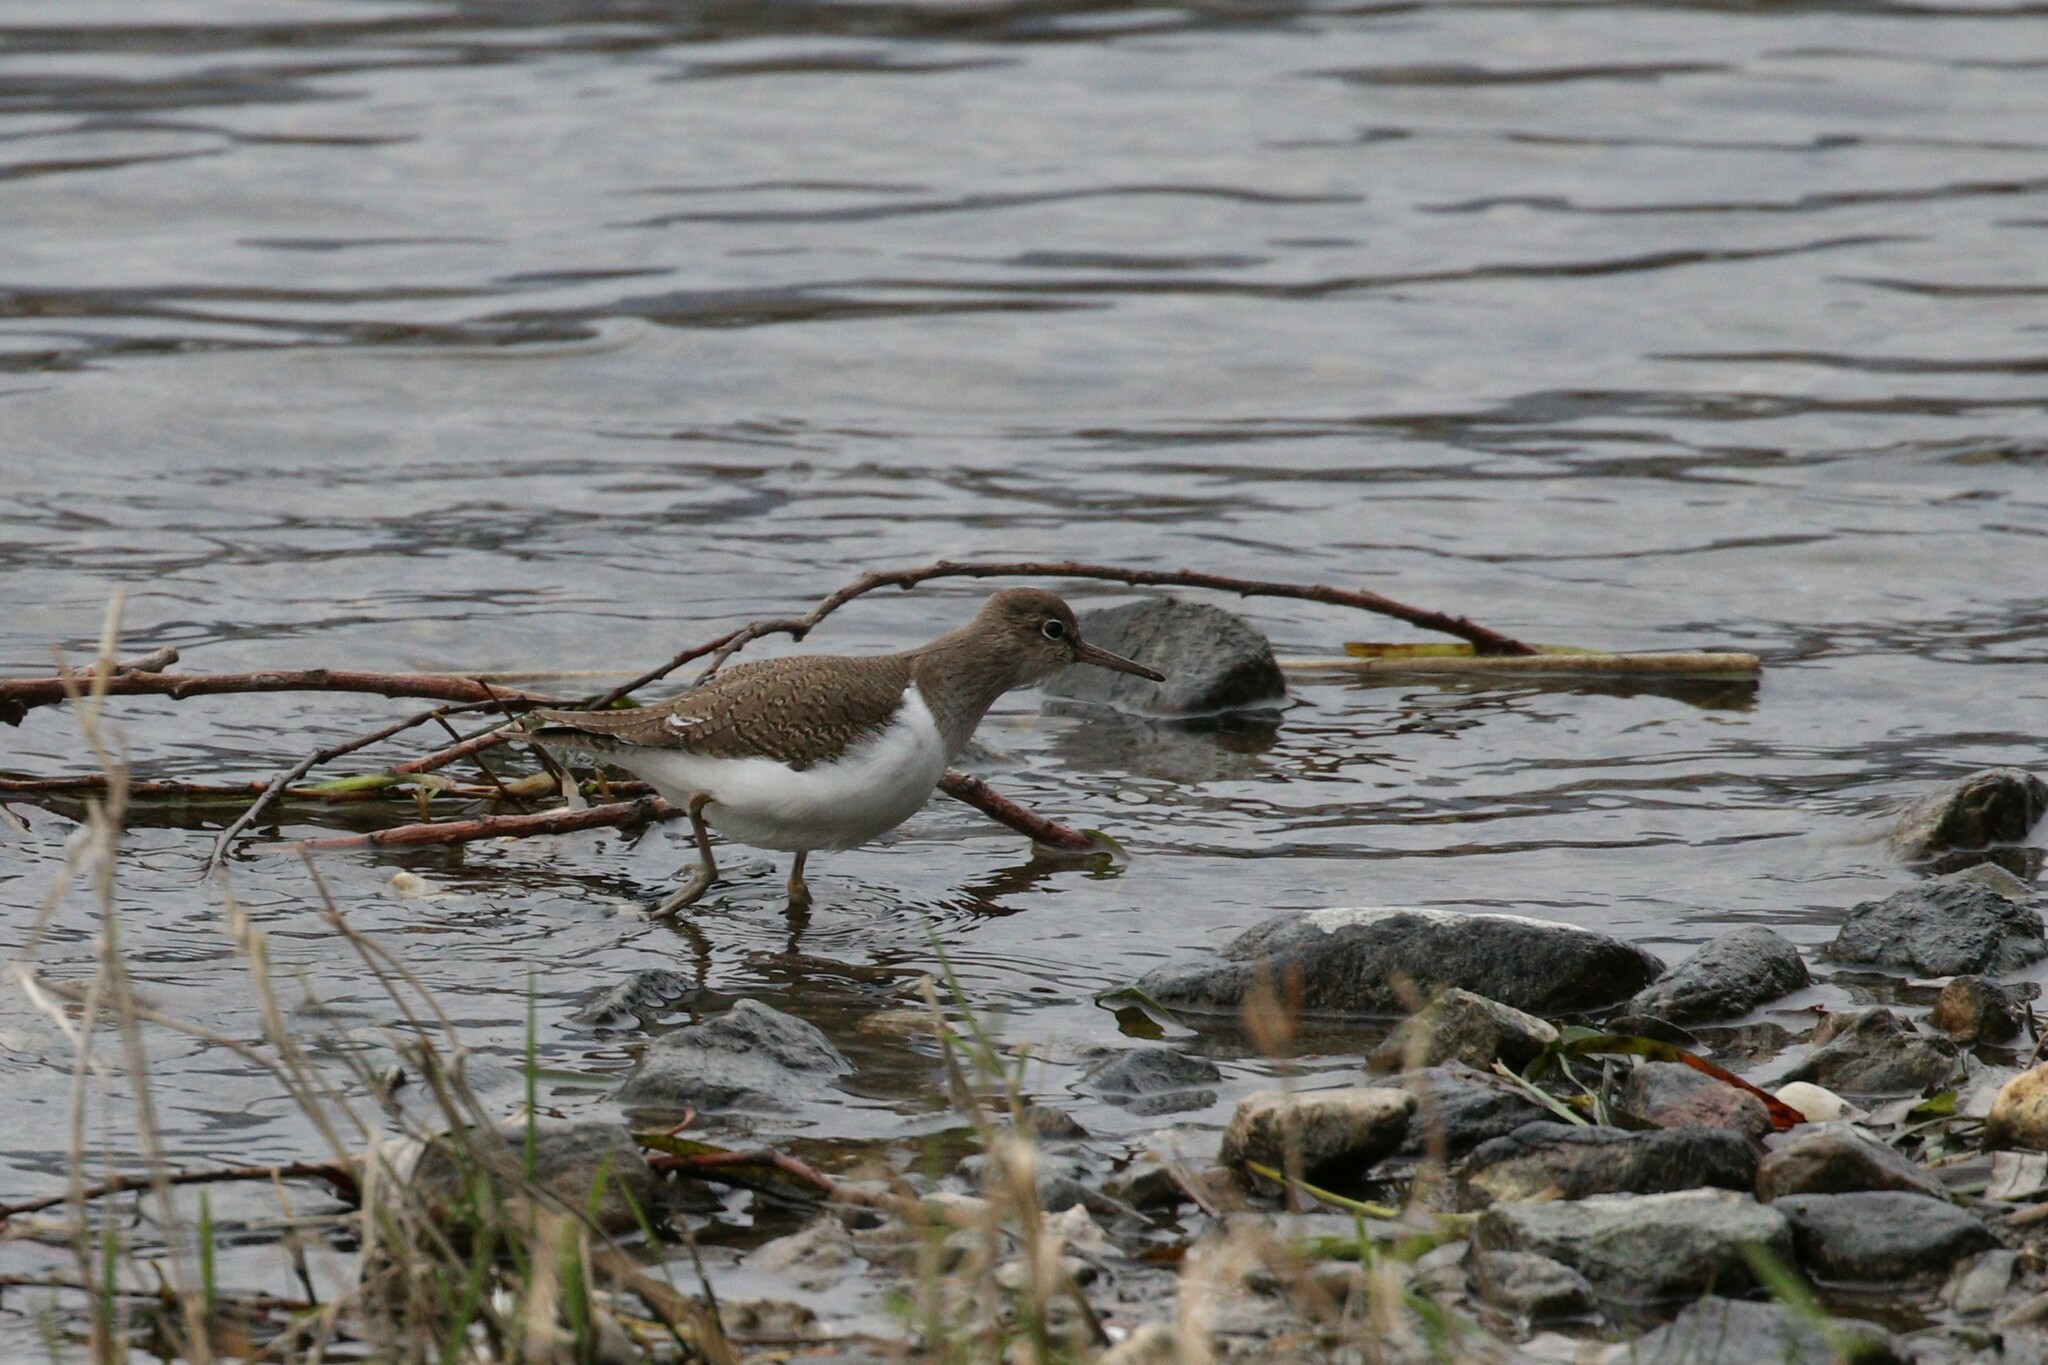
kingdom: Animalia
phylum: Chordata
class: Aves
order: Charadriiformes
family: Scolopacidae
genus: Actitis
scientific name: Actitis hypoleucos
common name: Common sandpiper
